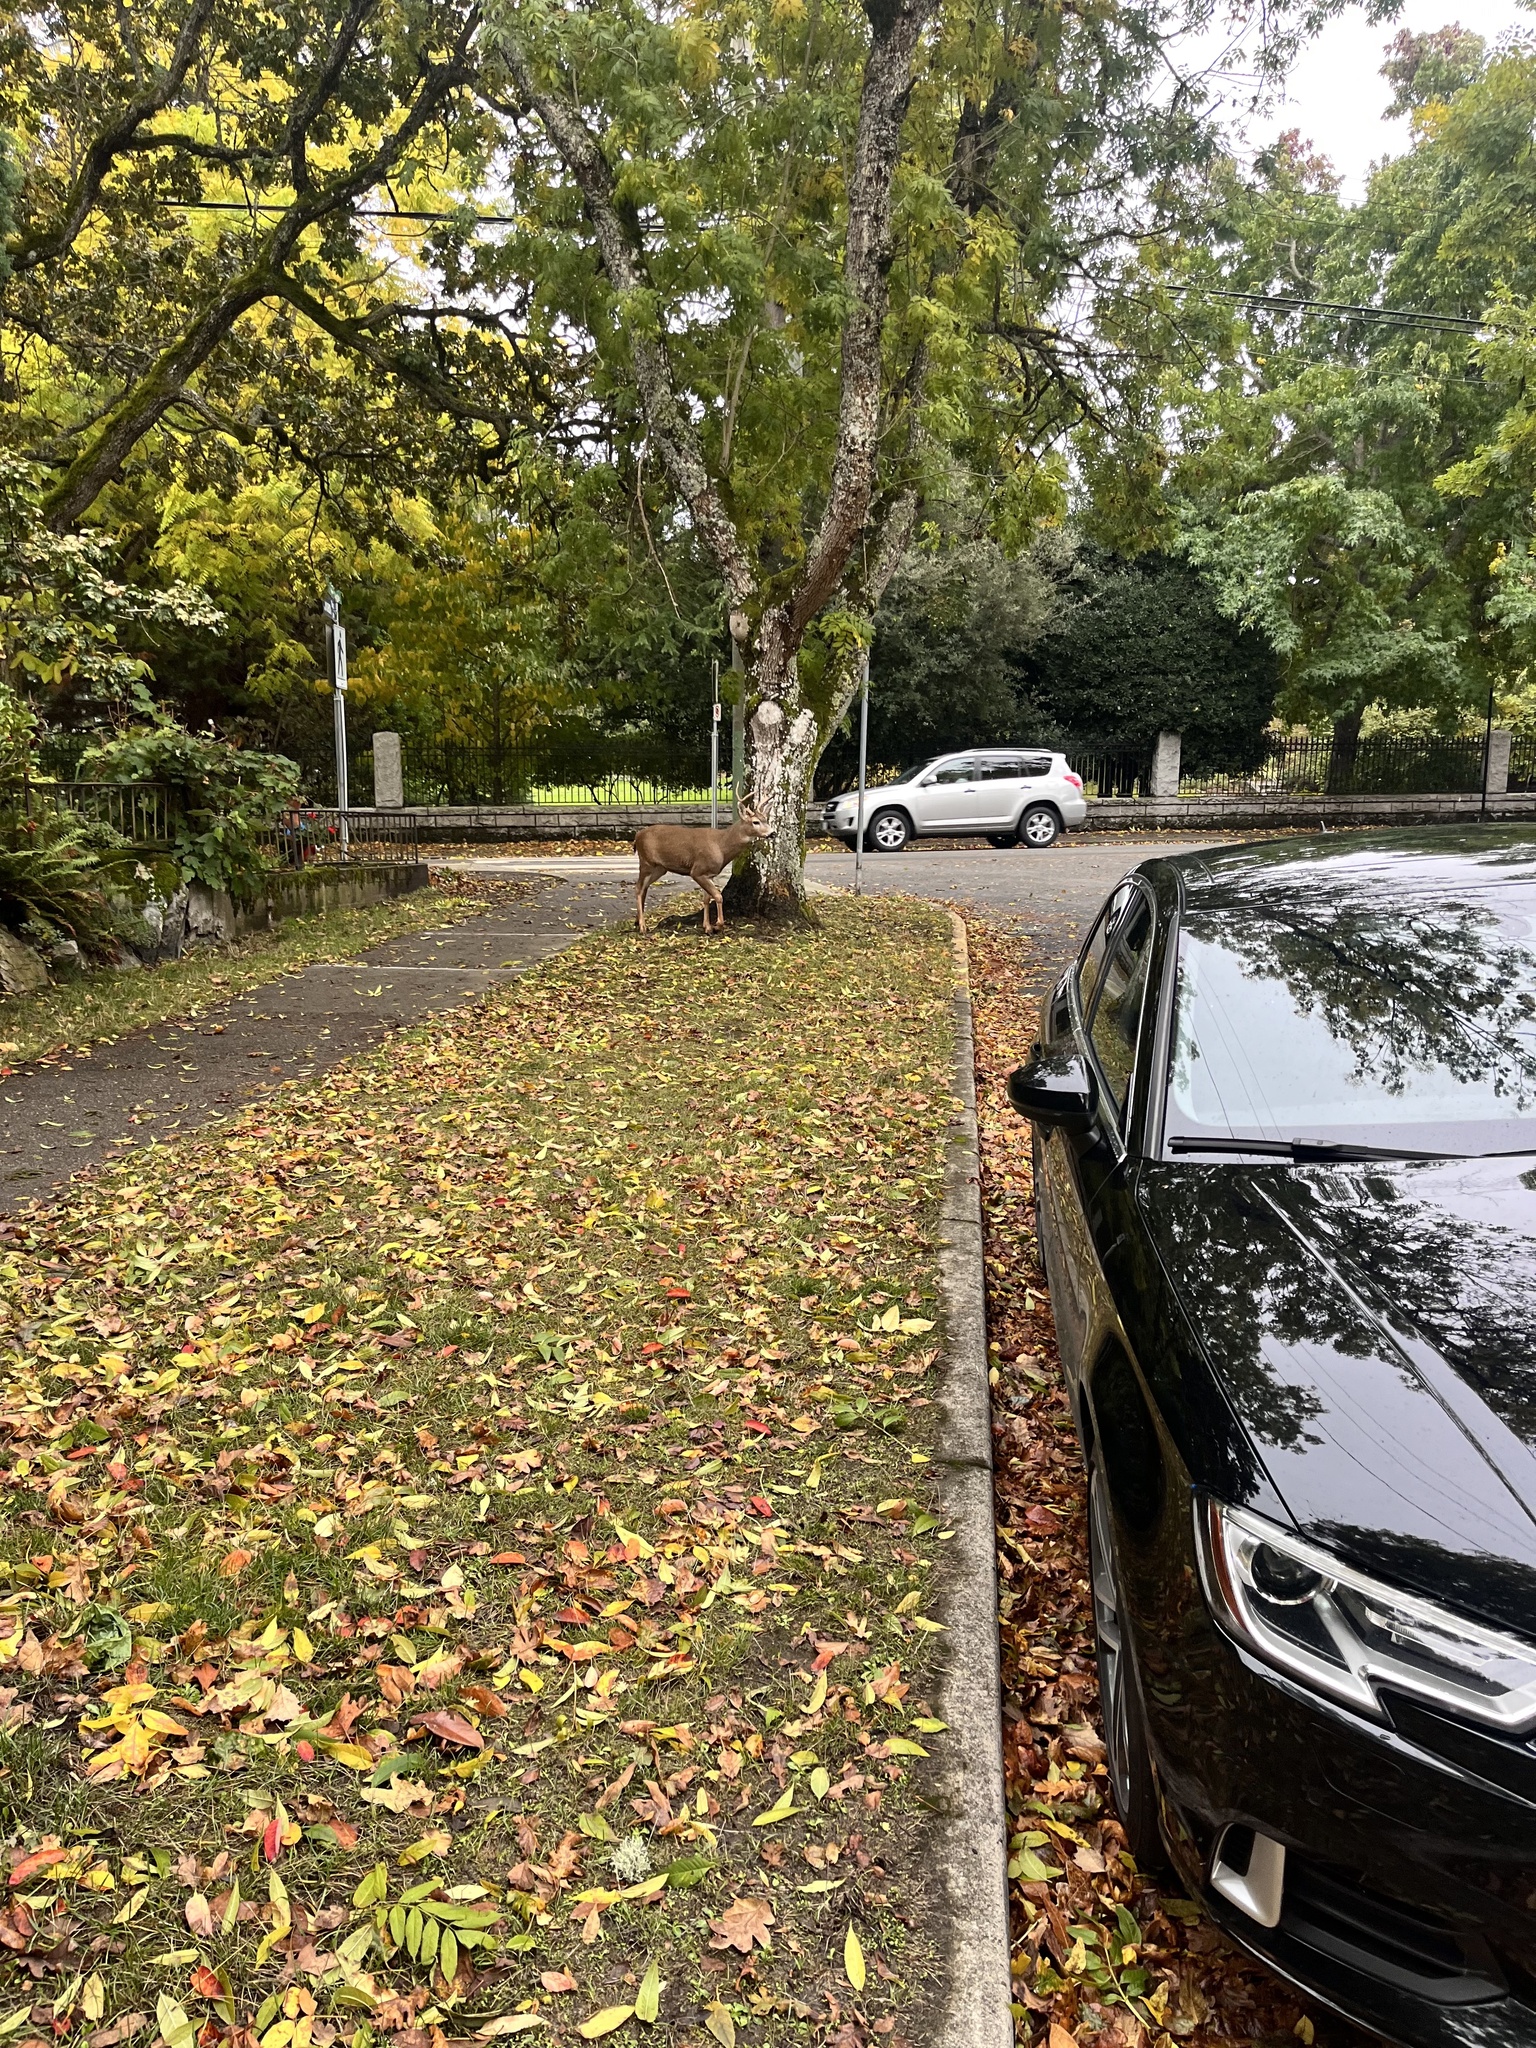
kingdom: Animalia
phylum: Chordata
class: Mammalia
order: Artiodactyla
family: Cervidae
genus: Odocoileus
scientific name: Odocoileus hemionus
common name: Mule deer
